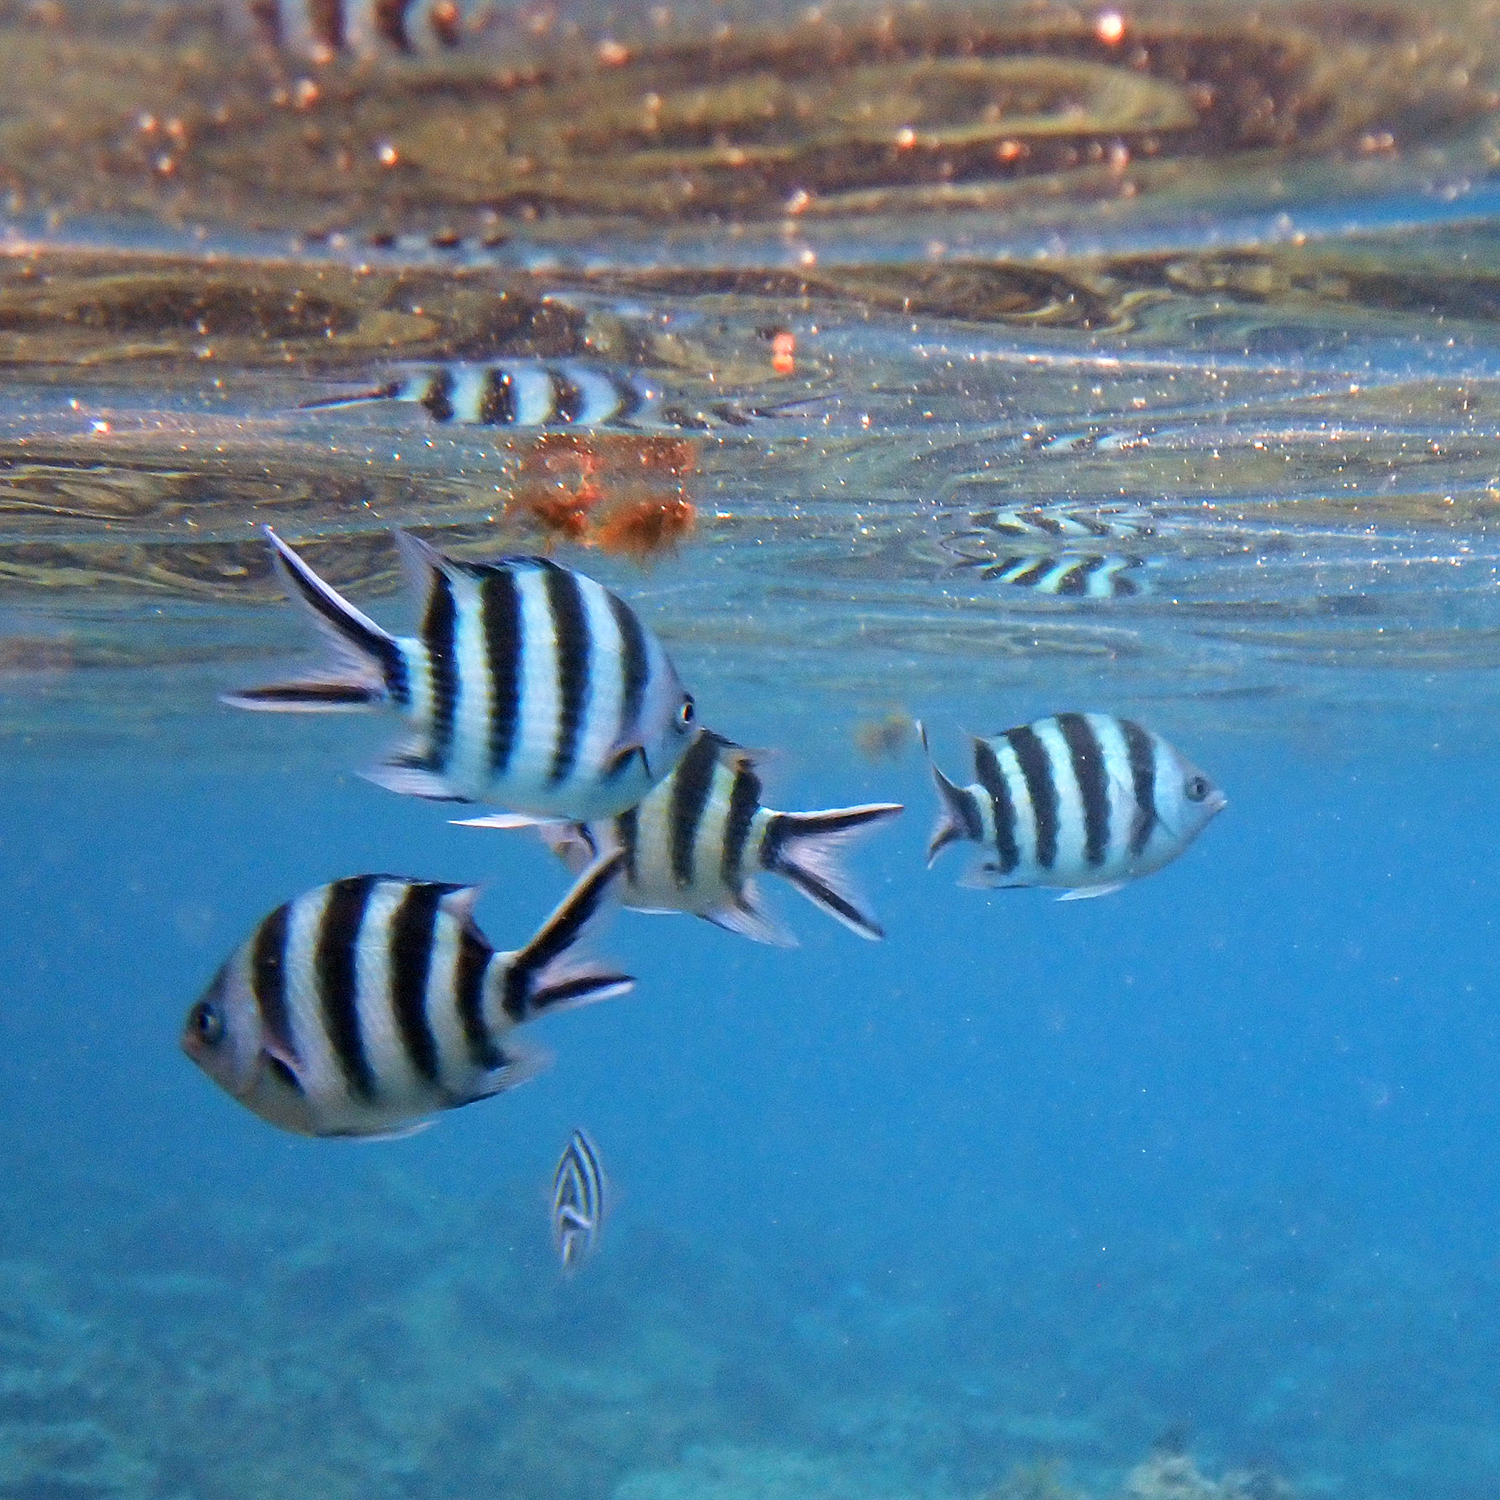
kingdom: Animalia
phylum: Chordata
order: Perciformes
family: Pomacentridae
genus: Abudefduf
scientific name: Abudefduf sexfasciatus
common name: Scissortail sergeant
